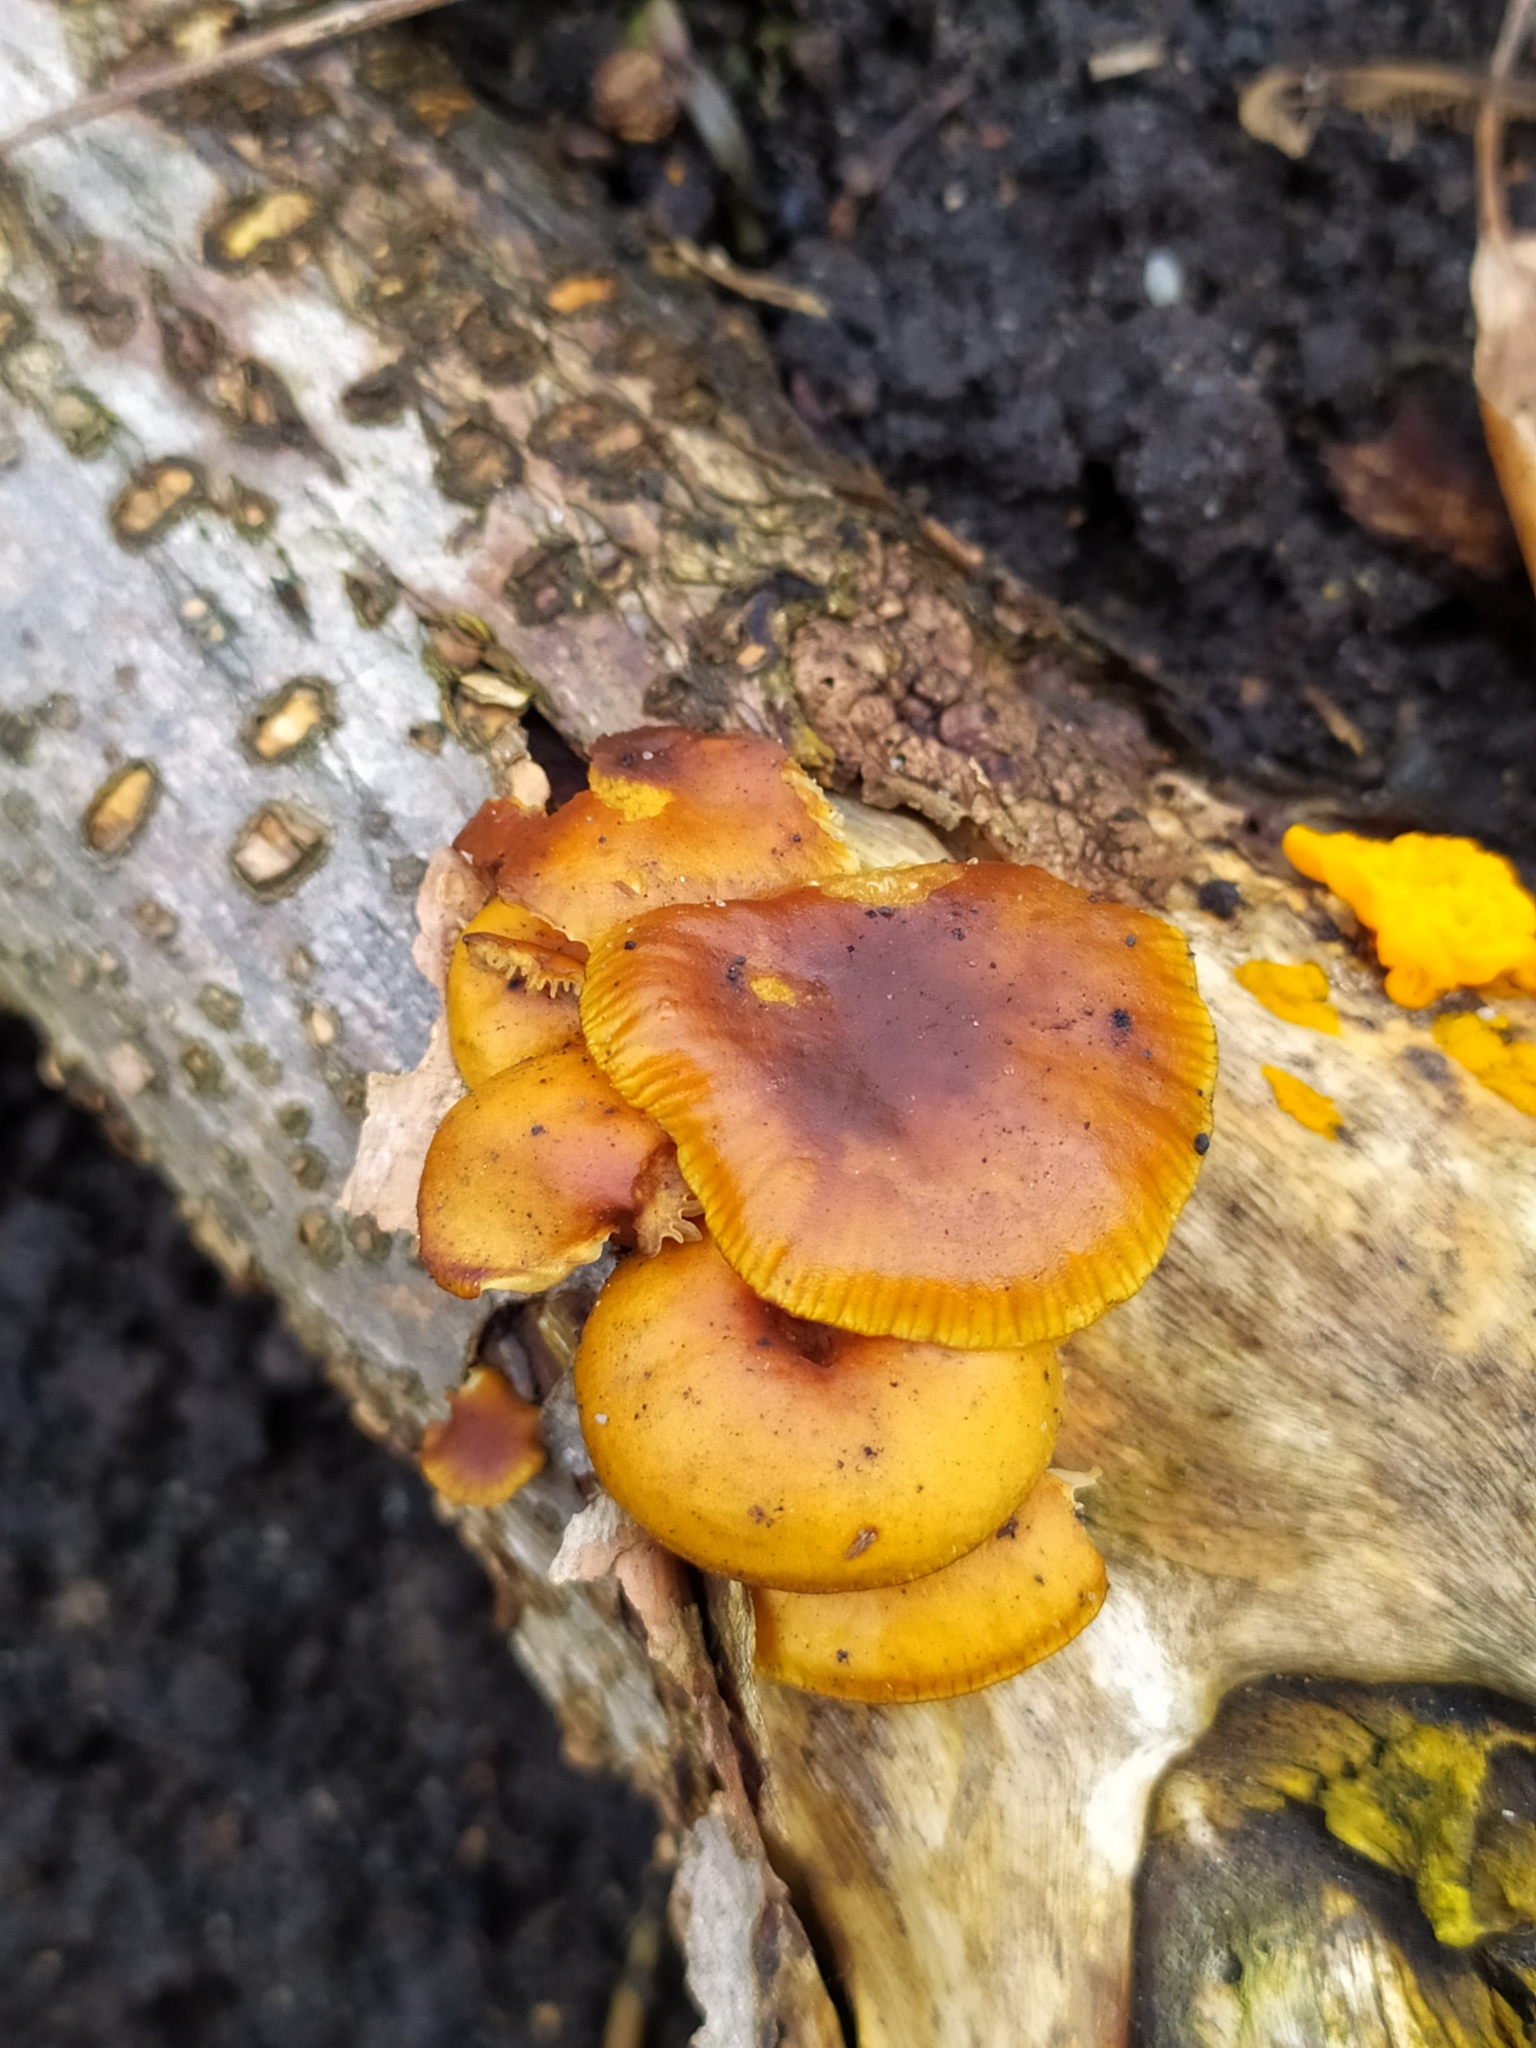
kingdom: Fungi
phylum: Basidiomycota
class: Agaricomycetes
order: Agaricales
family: Physalacriaceae
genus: Flammulina
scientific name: Flammulina
